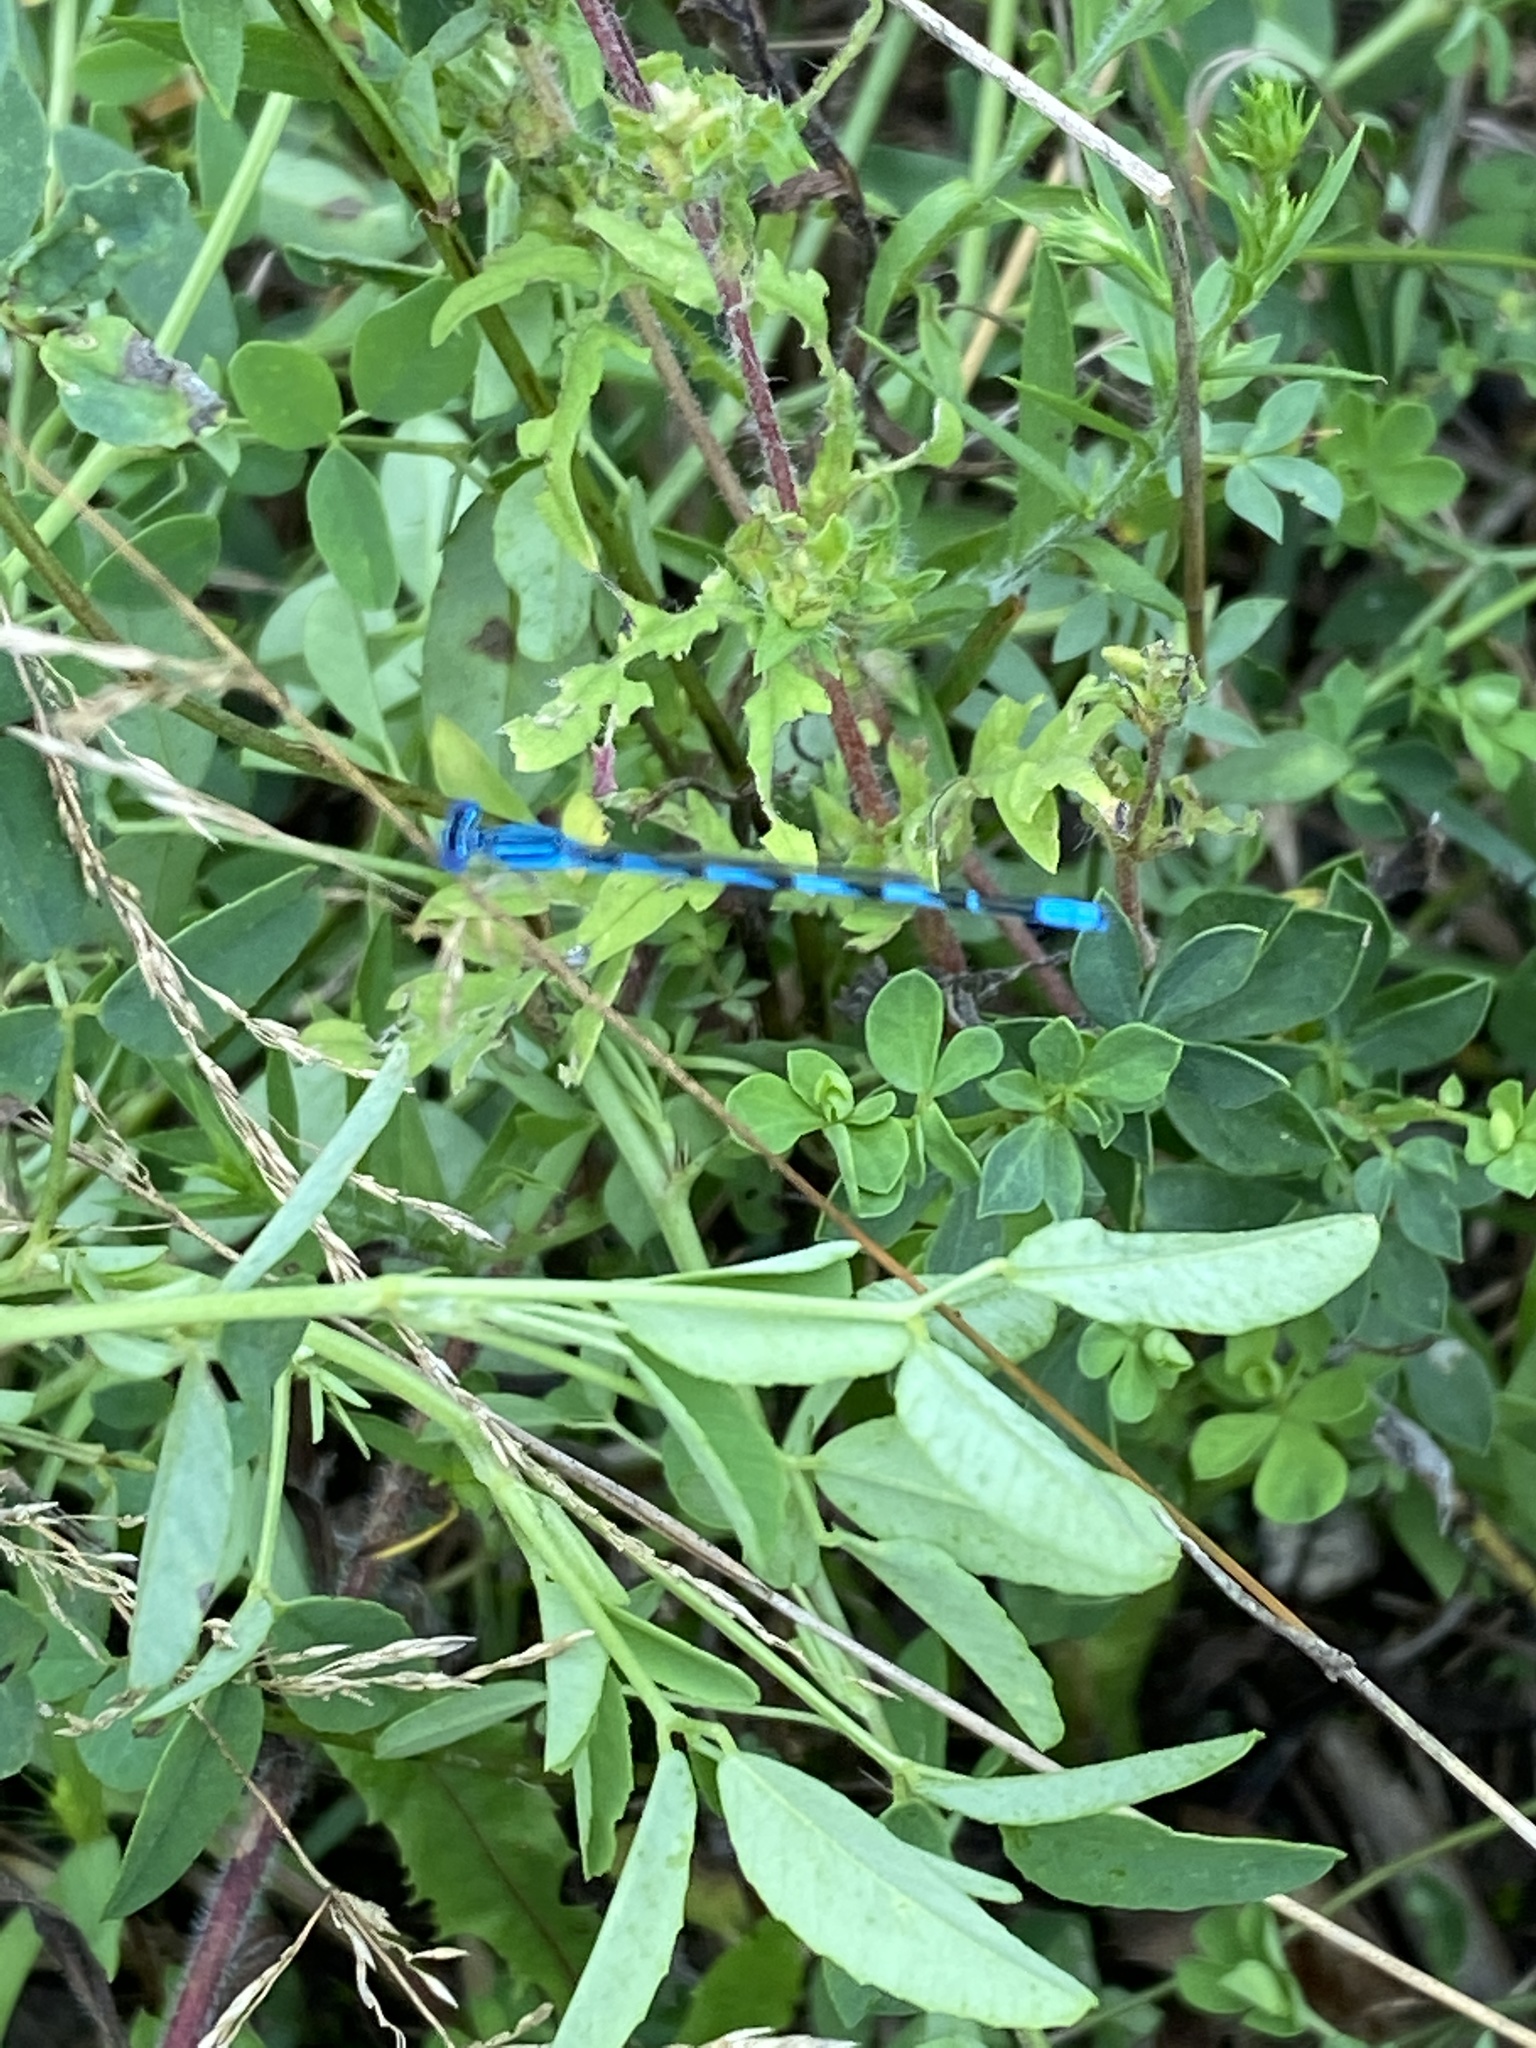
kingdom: Animalia
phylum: Arthropoda
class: Insecta
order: Odonata
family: Coenagrionidae
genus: Enallagma
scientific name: Enallagma basidens
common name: Double-striped bluet
